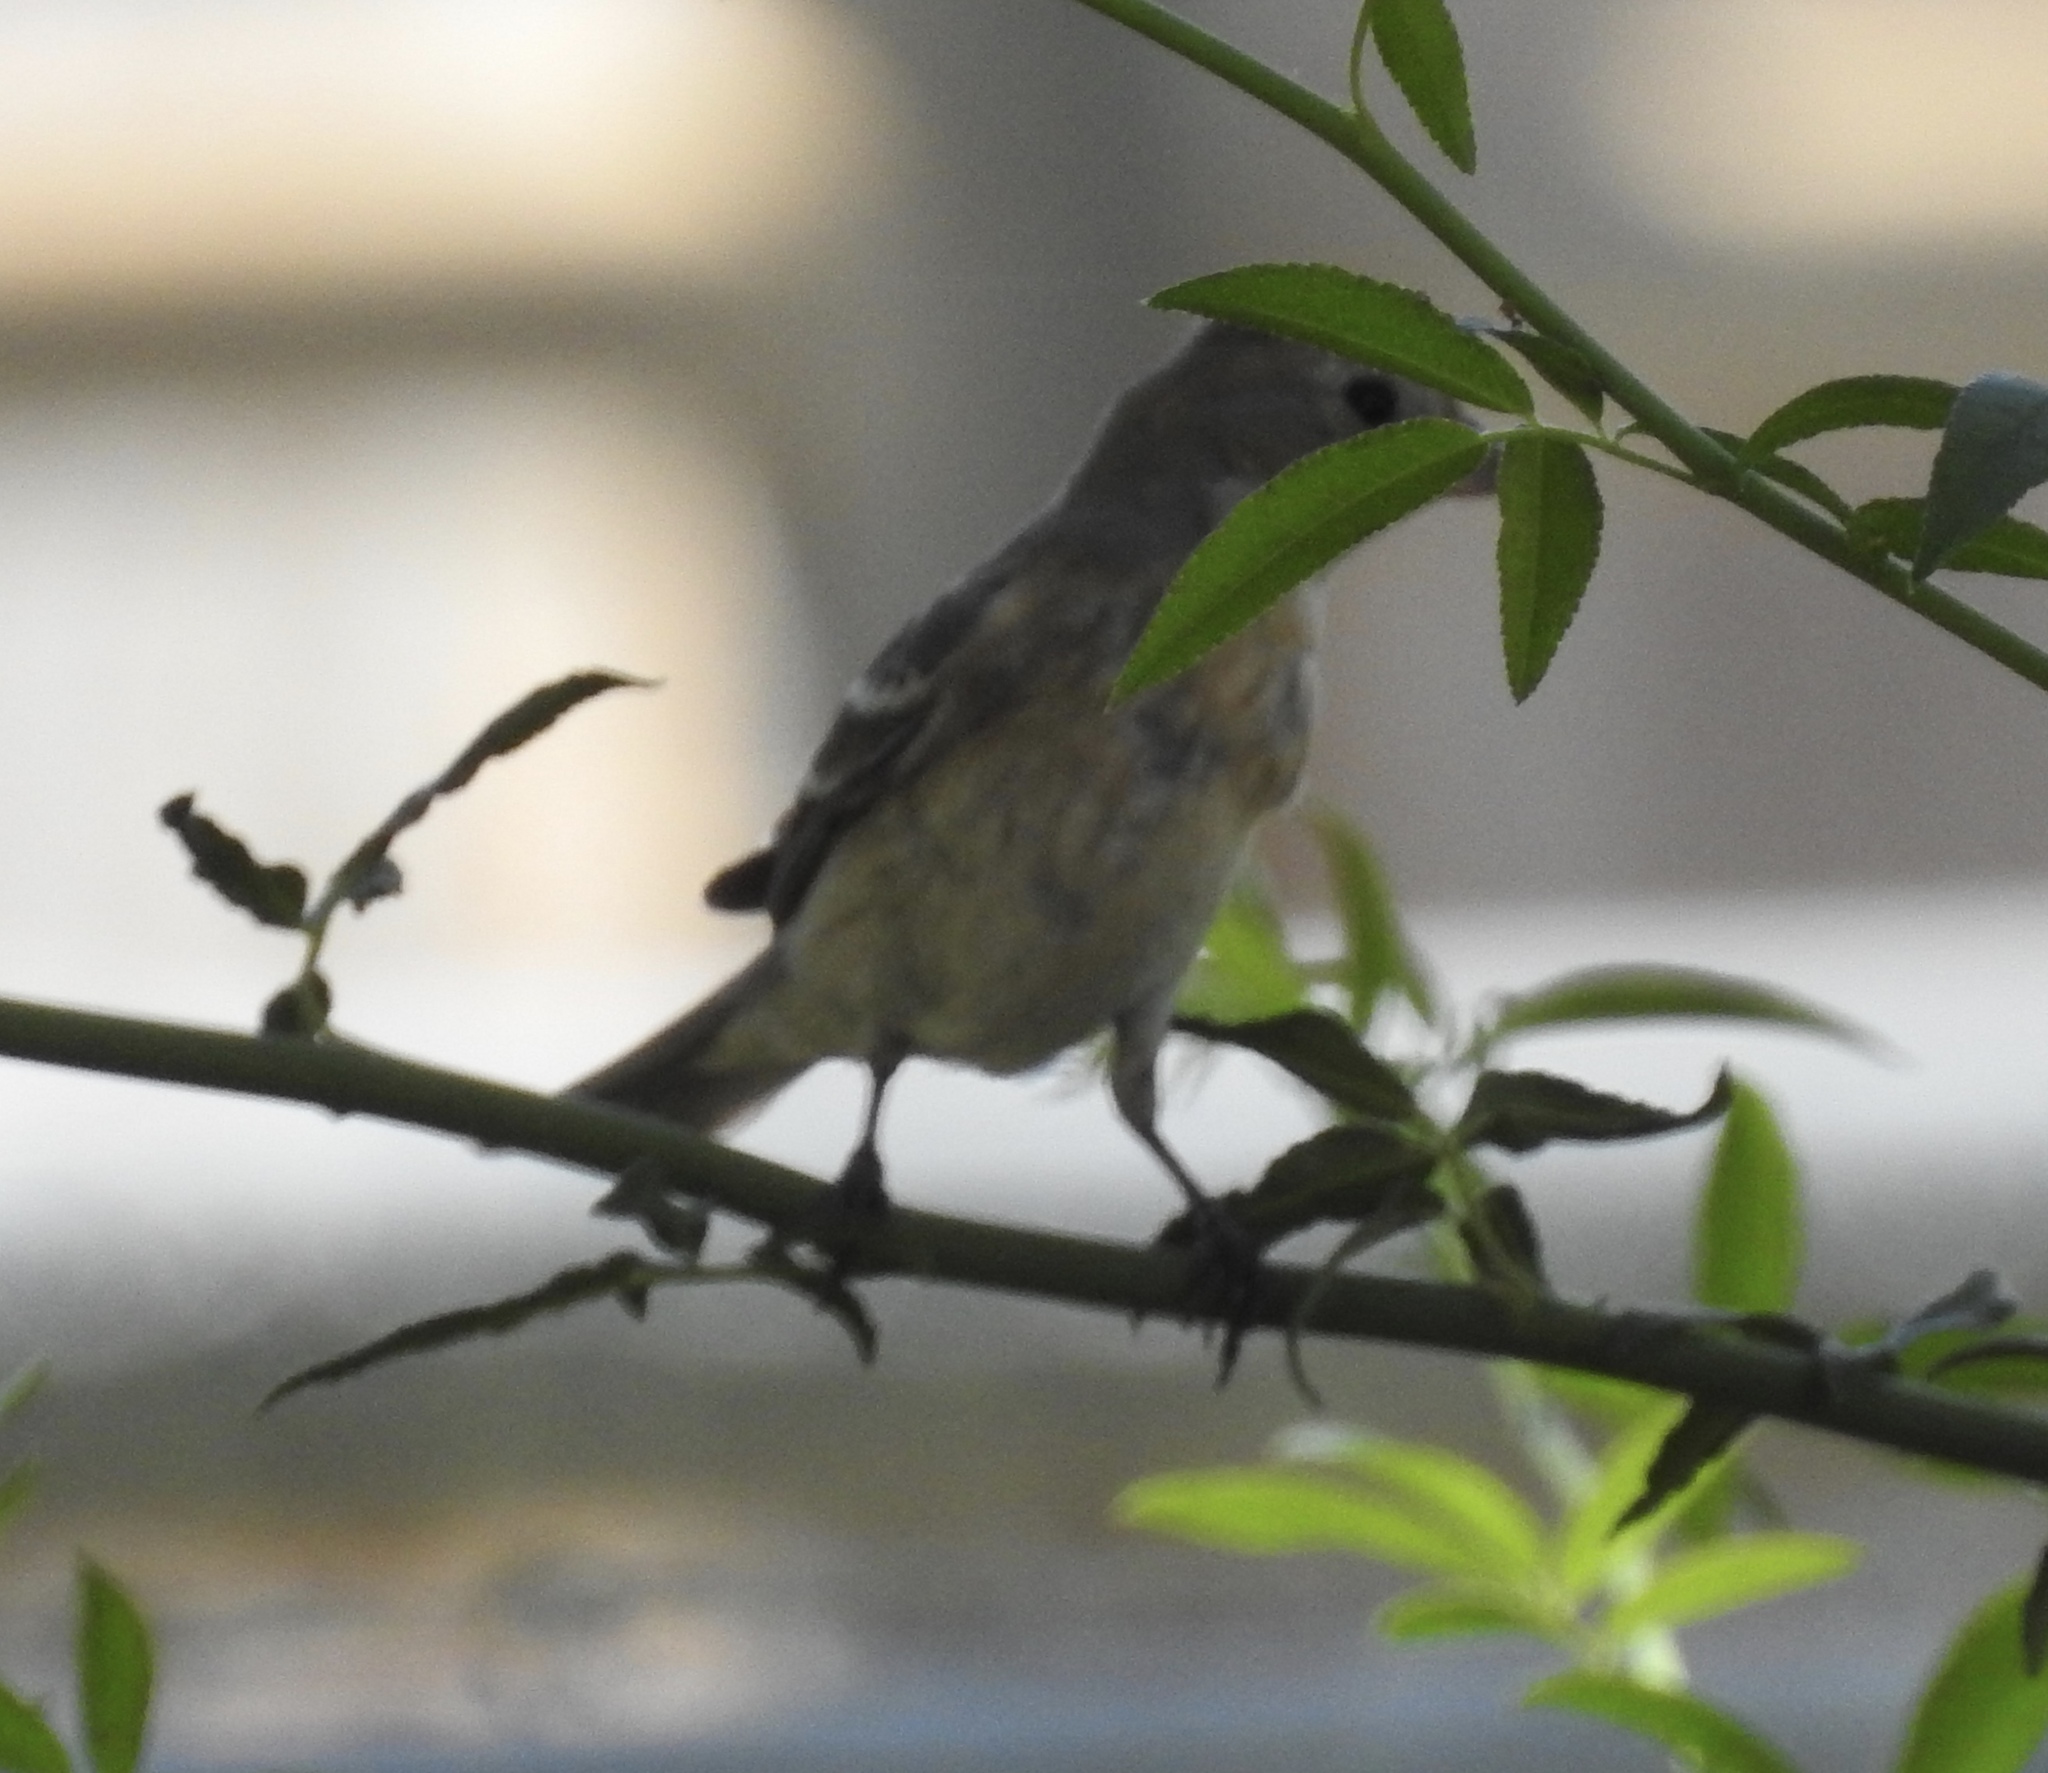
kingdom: Animalia
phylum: Chordata
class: Aves
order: Passeriformes
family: Fringillidae
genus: Spinus
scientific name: Spinus psaltria
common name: Lesser goldfinch
